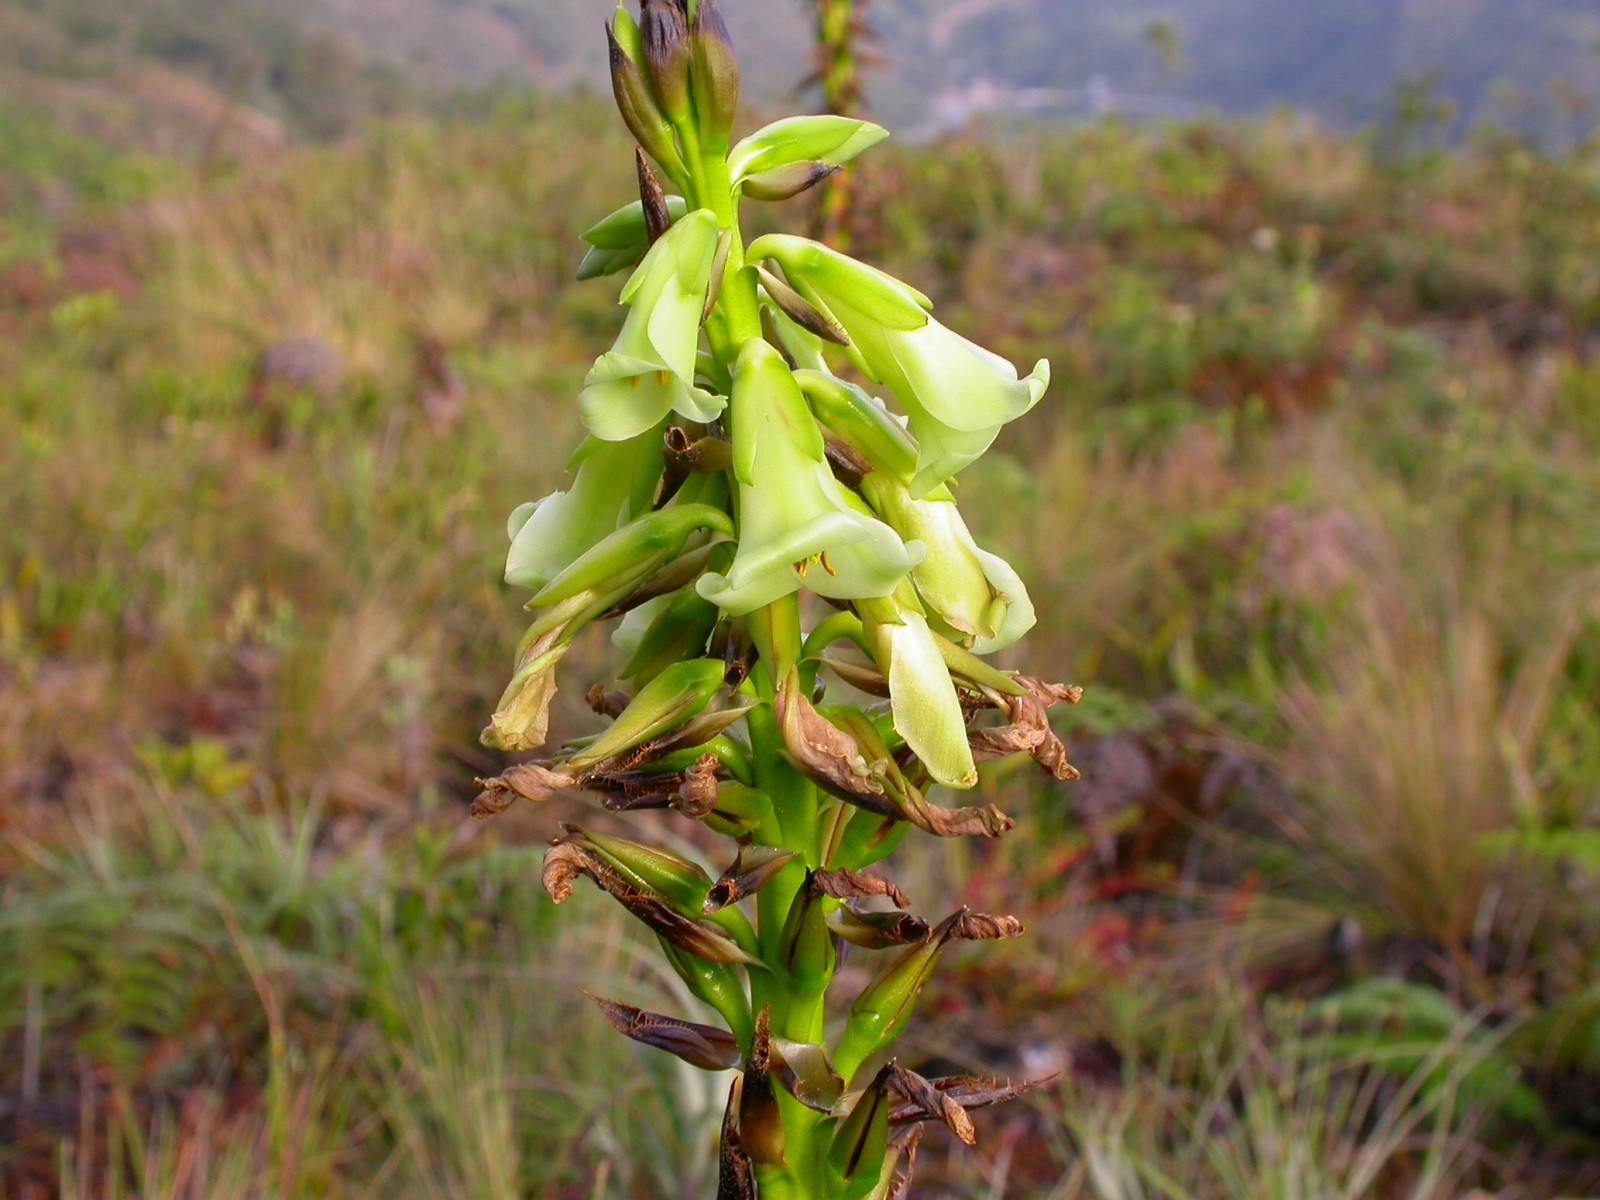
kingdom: Plantae
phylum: Tracheophyta
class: Liliopsida
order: Poales
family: Bromeliaceae
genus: Puya
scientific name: Puya macropoda
